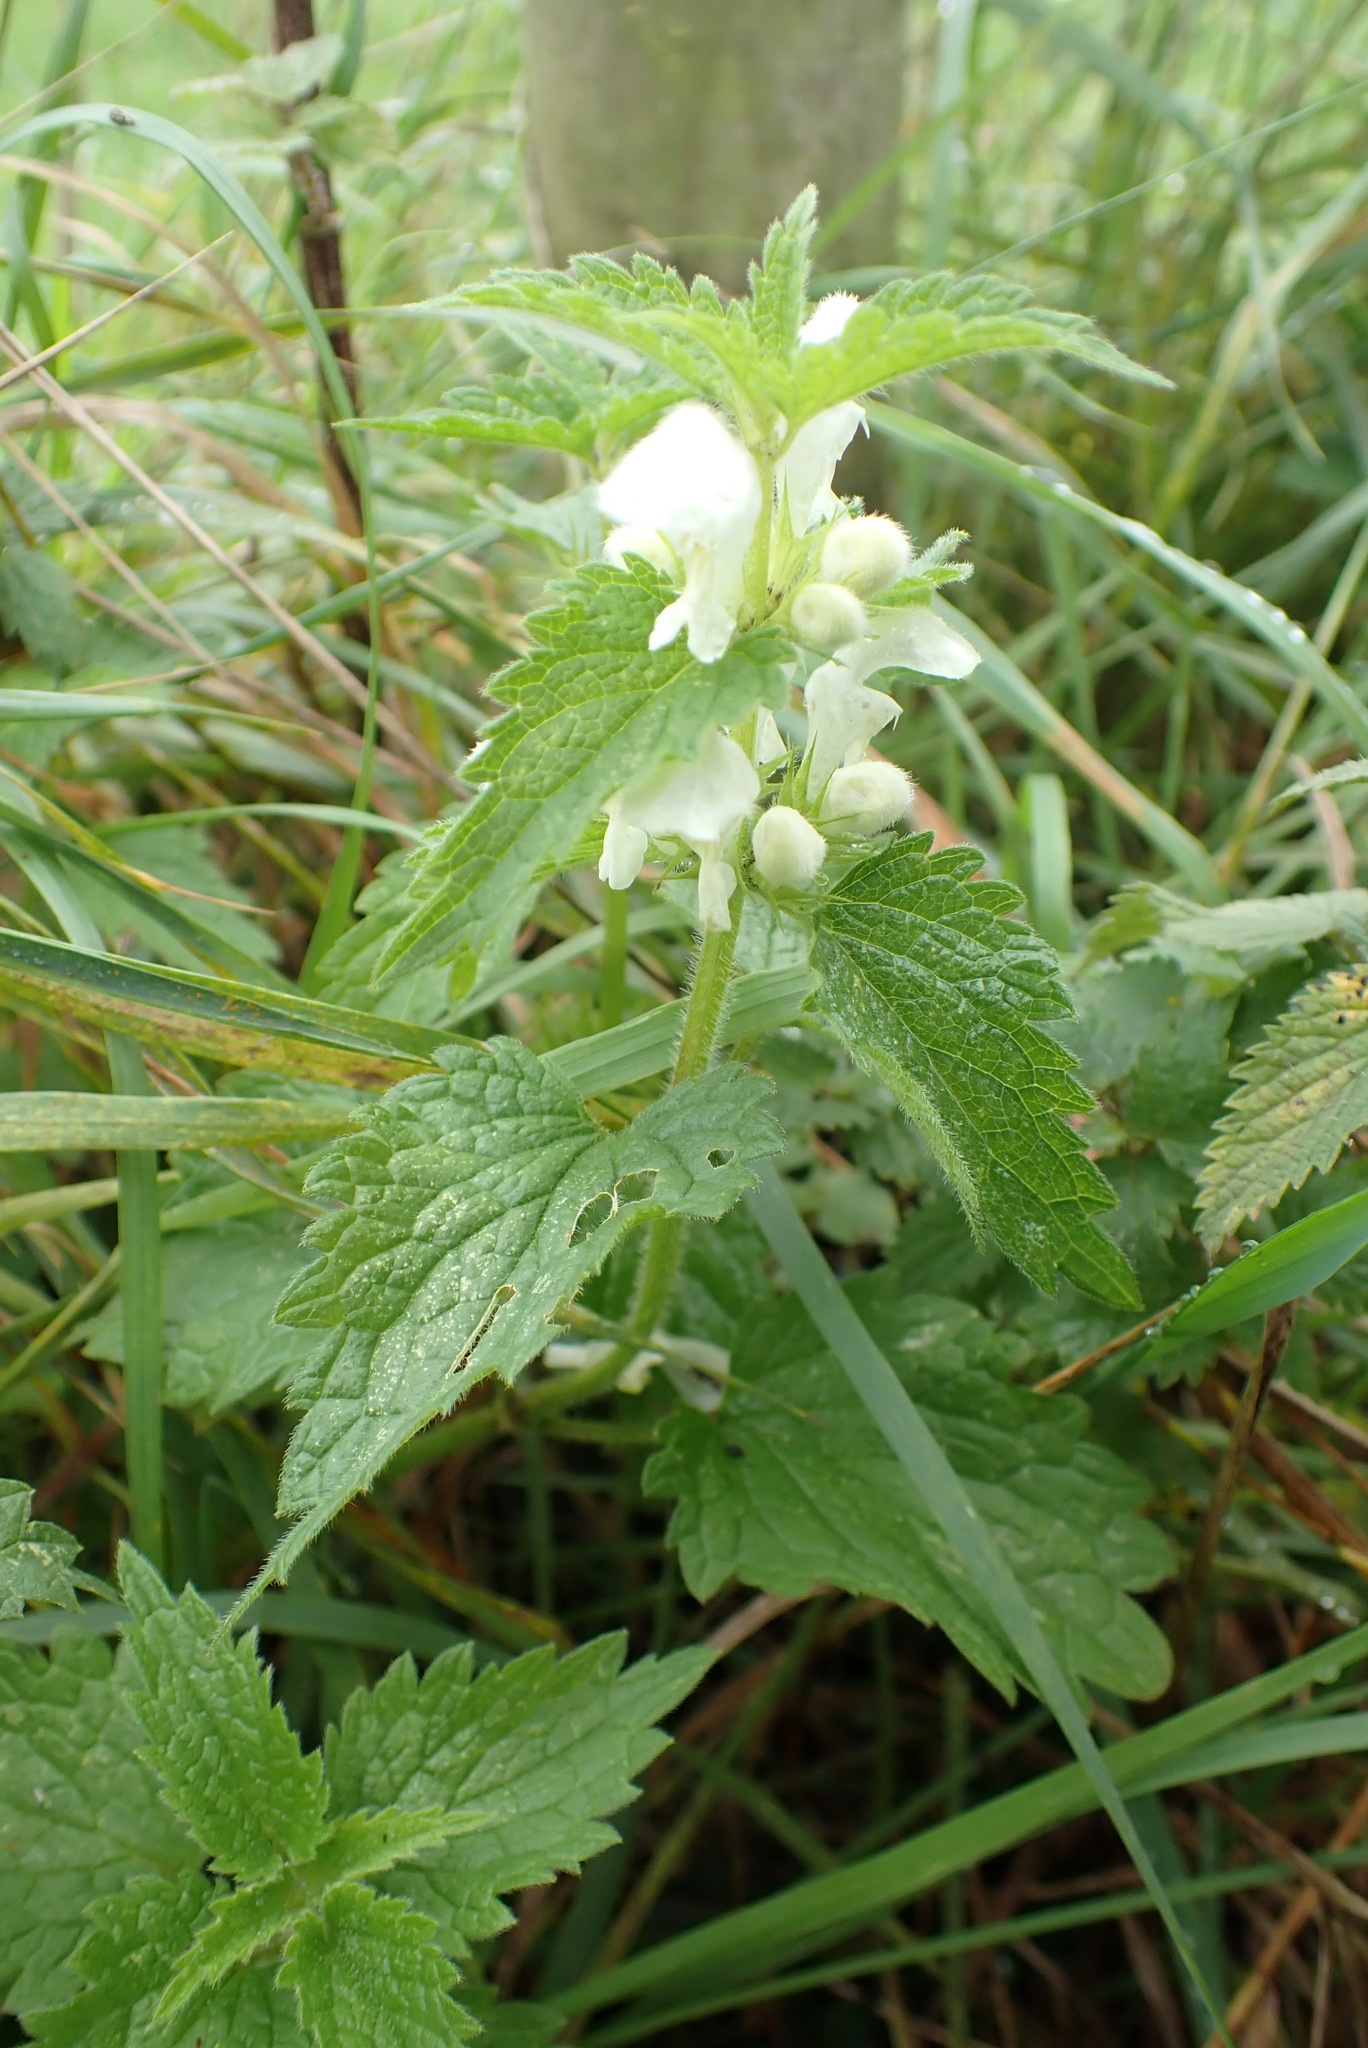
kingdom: Plantae
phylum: Tracheophyta
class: Magnoliopsida
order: Lamiales
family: Lamiaceae
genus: Lamium
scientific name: Lamium album
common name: White dead-nettle
